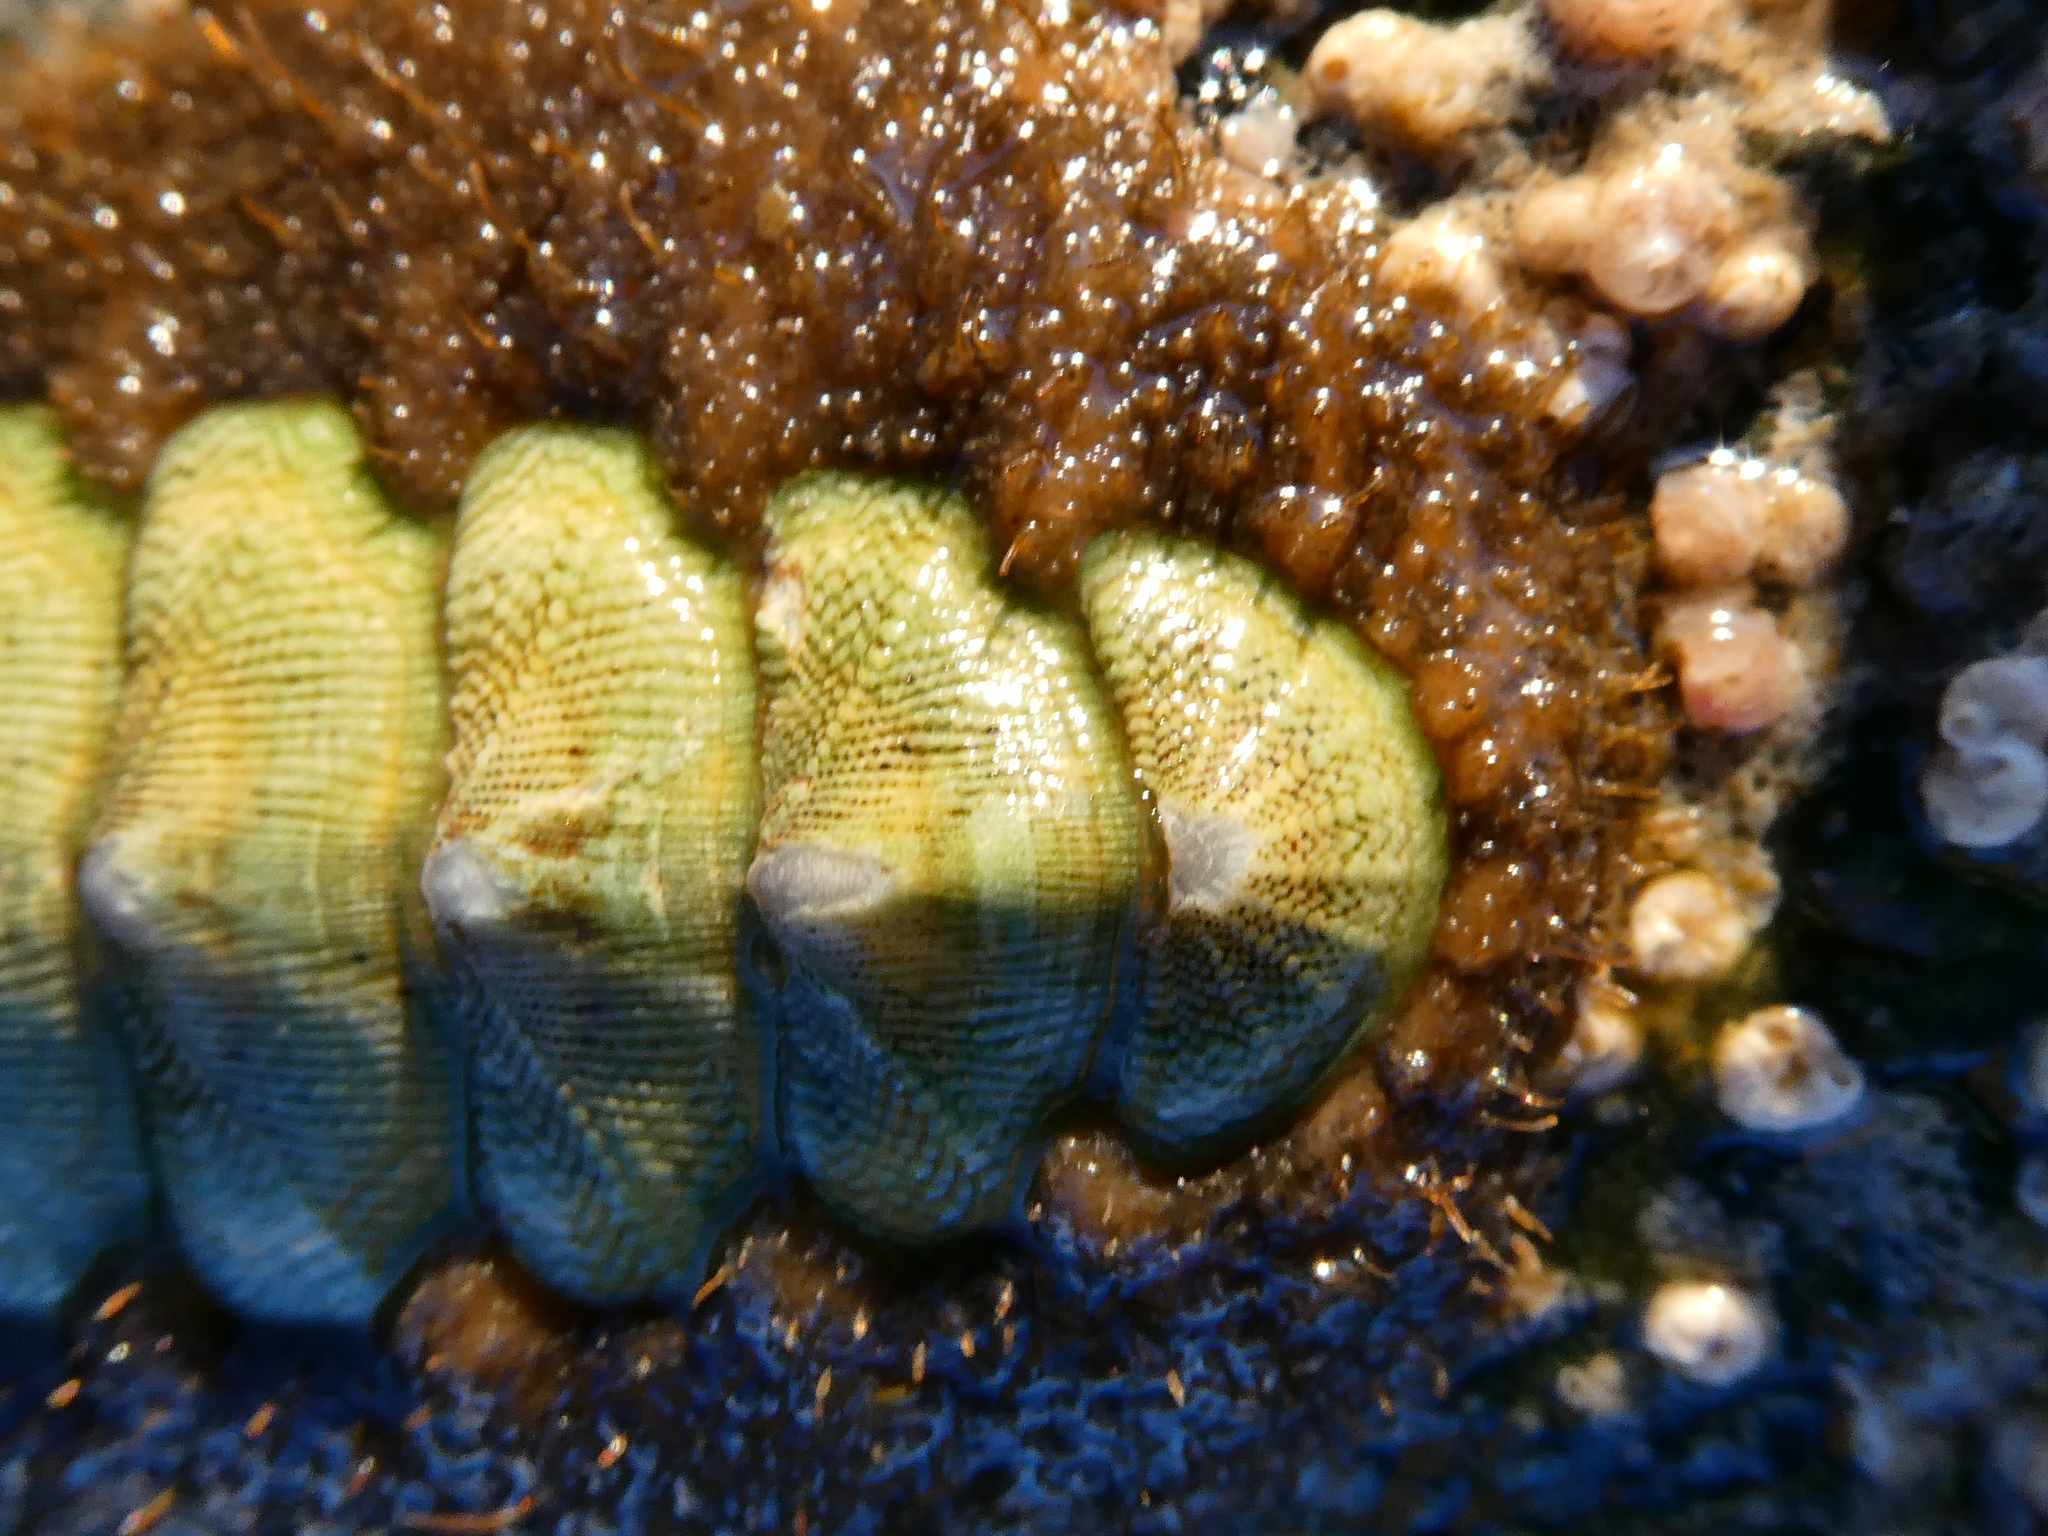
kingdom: Animalia
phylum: Mollusca
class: Polyplacophora
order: Chitonida
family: Mopaliidae
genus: Mopalia
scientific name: Mopalia ciliata
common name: Hairy chiton
